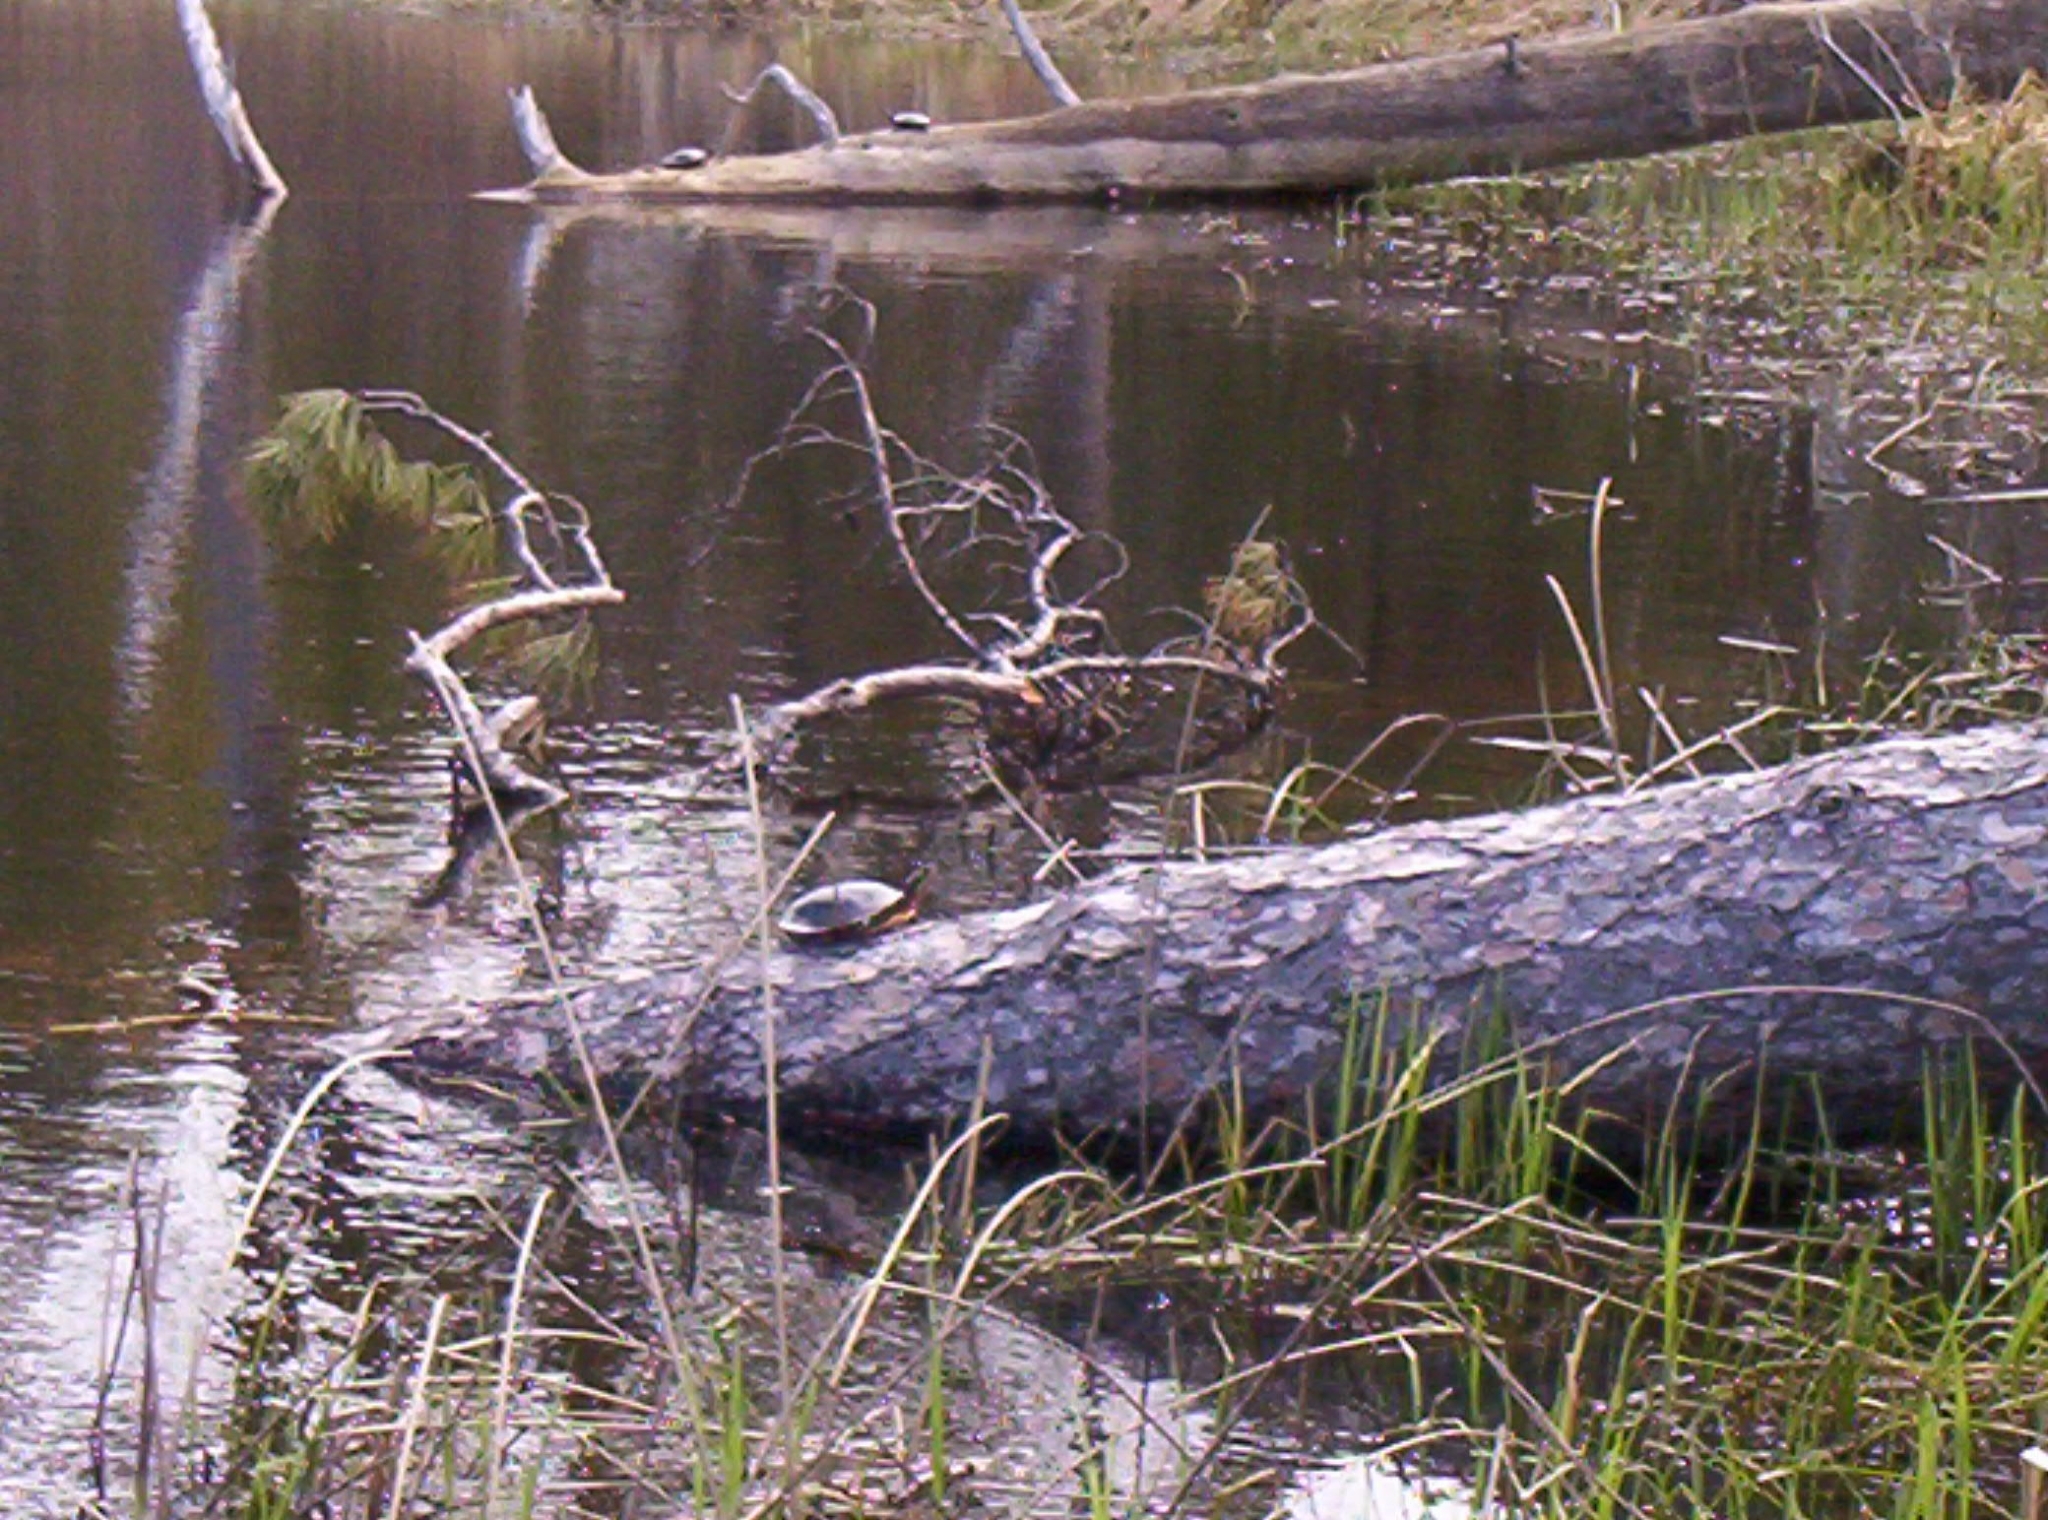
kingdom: Animalia
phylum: Chordata
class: Testudines
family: Emydidae
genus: Chrysemys
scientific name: Chrysemys picta
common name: Painted turtle
